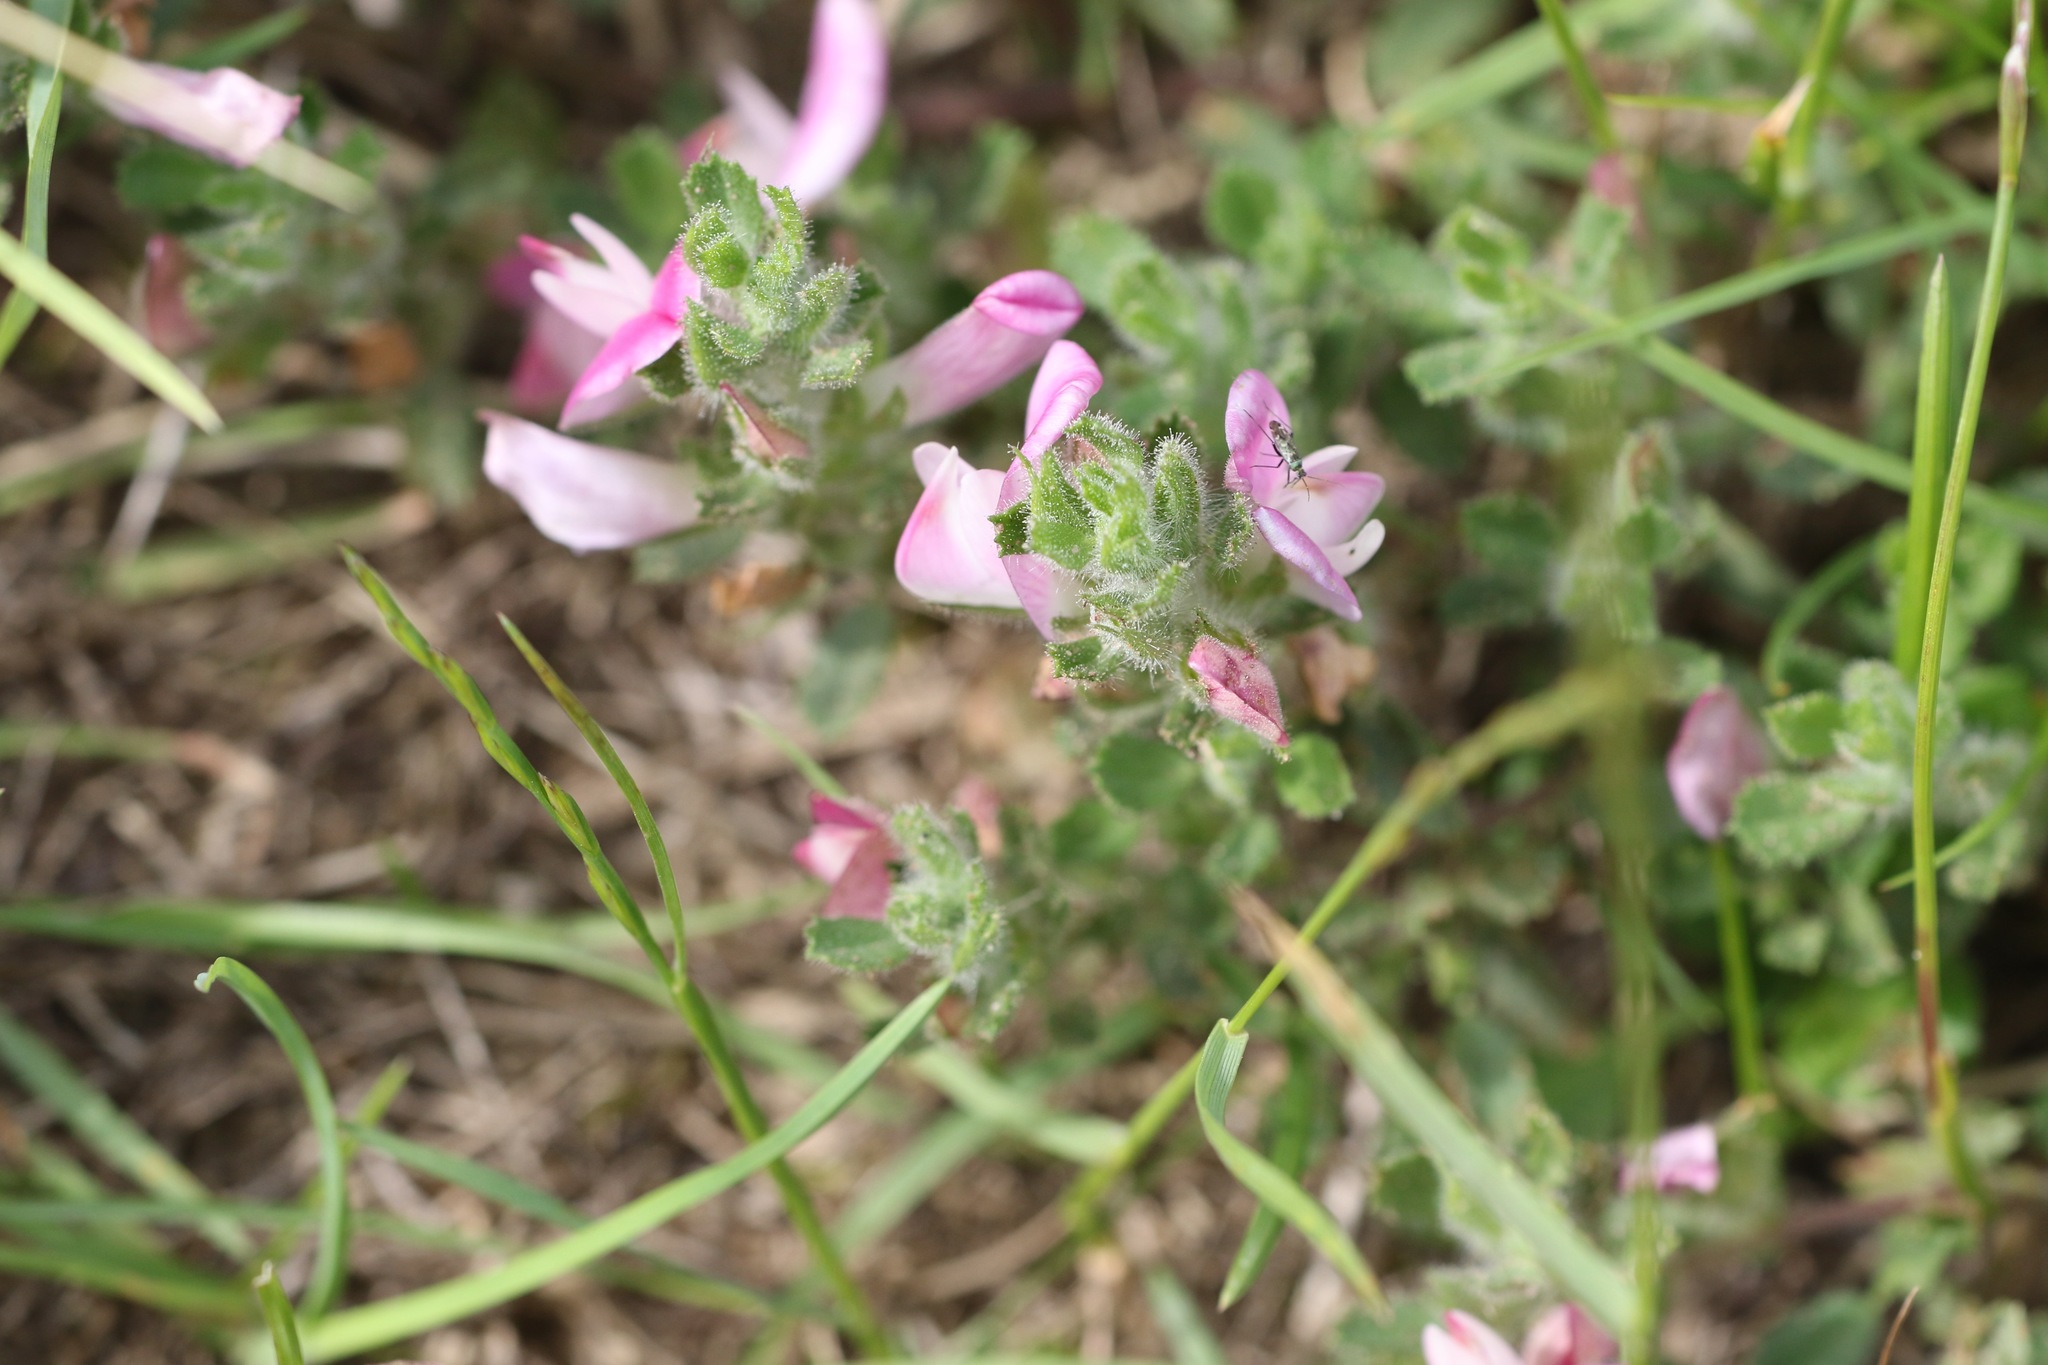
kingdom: Plantae
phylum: Tracheophyta
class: Magnoliopsida
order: Fabales
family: Fabaceae
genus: Ononis
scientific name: Ononis spinosa
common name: Spiny restharrow
